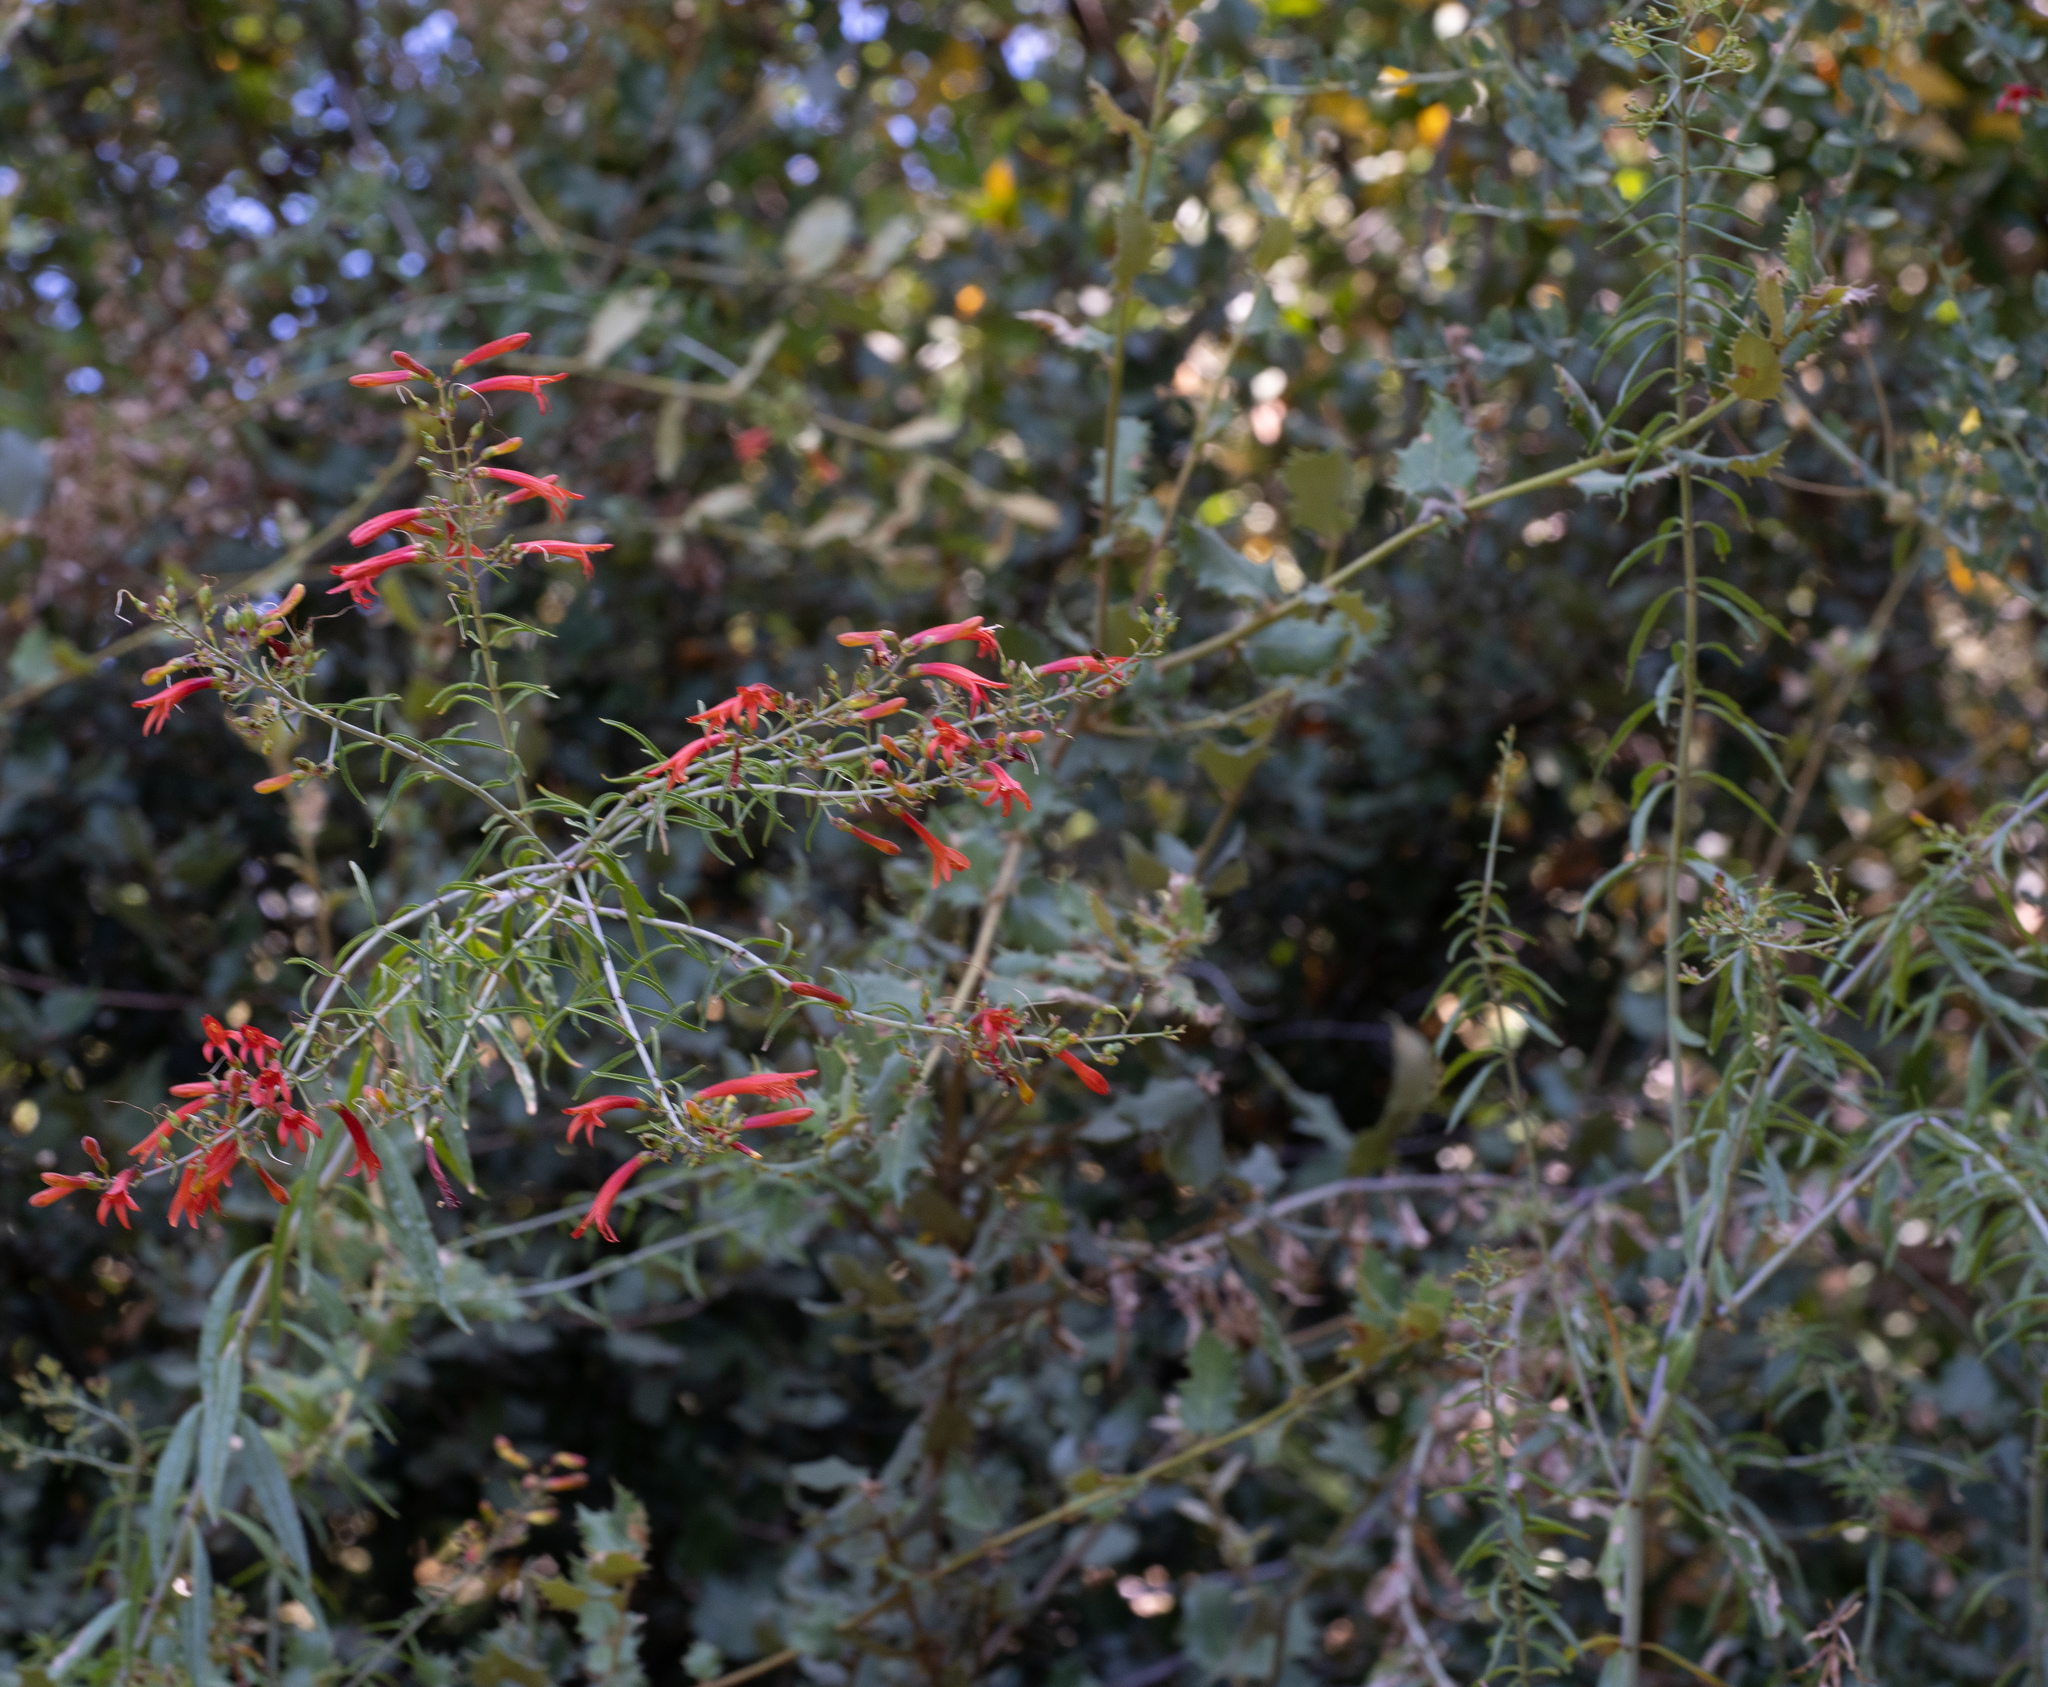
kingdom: Plantae
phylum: Tracheophyta
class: Magnoliopsida
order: Lamiales
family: Plantaginaceae
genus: Keckiella
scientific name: Keckiella ternata
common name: Scarlet keckiella
